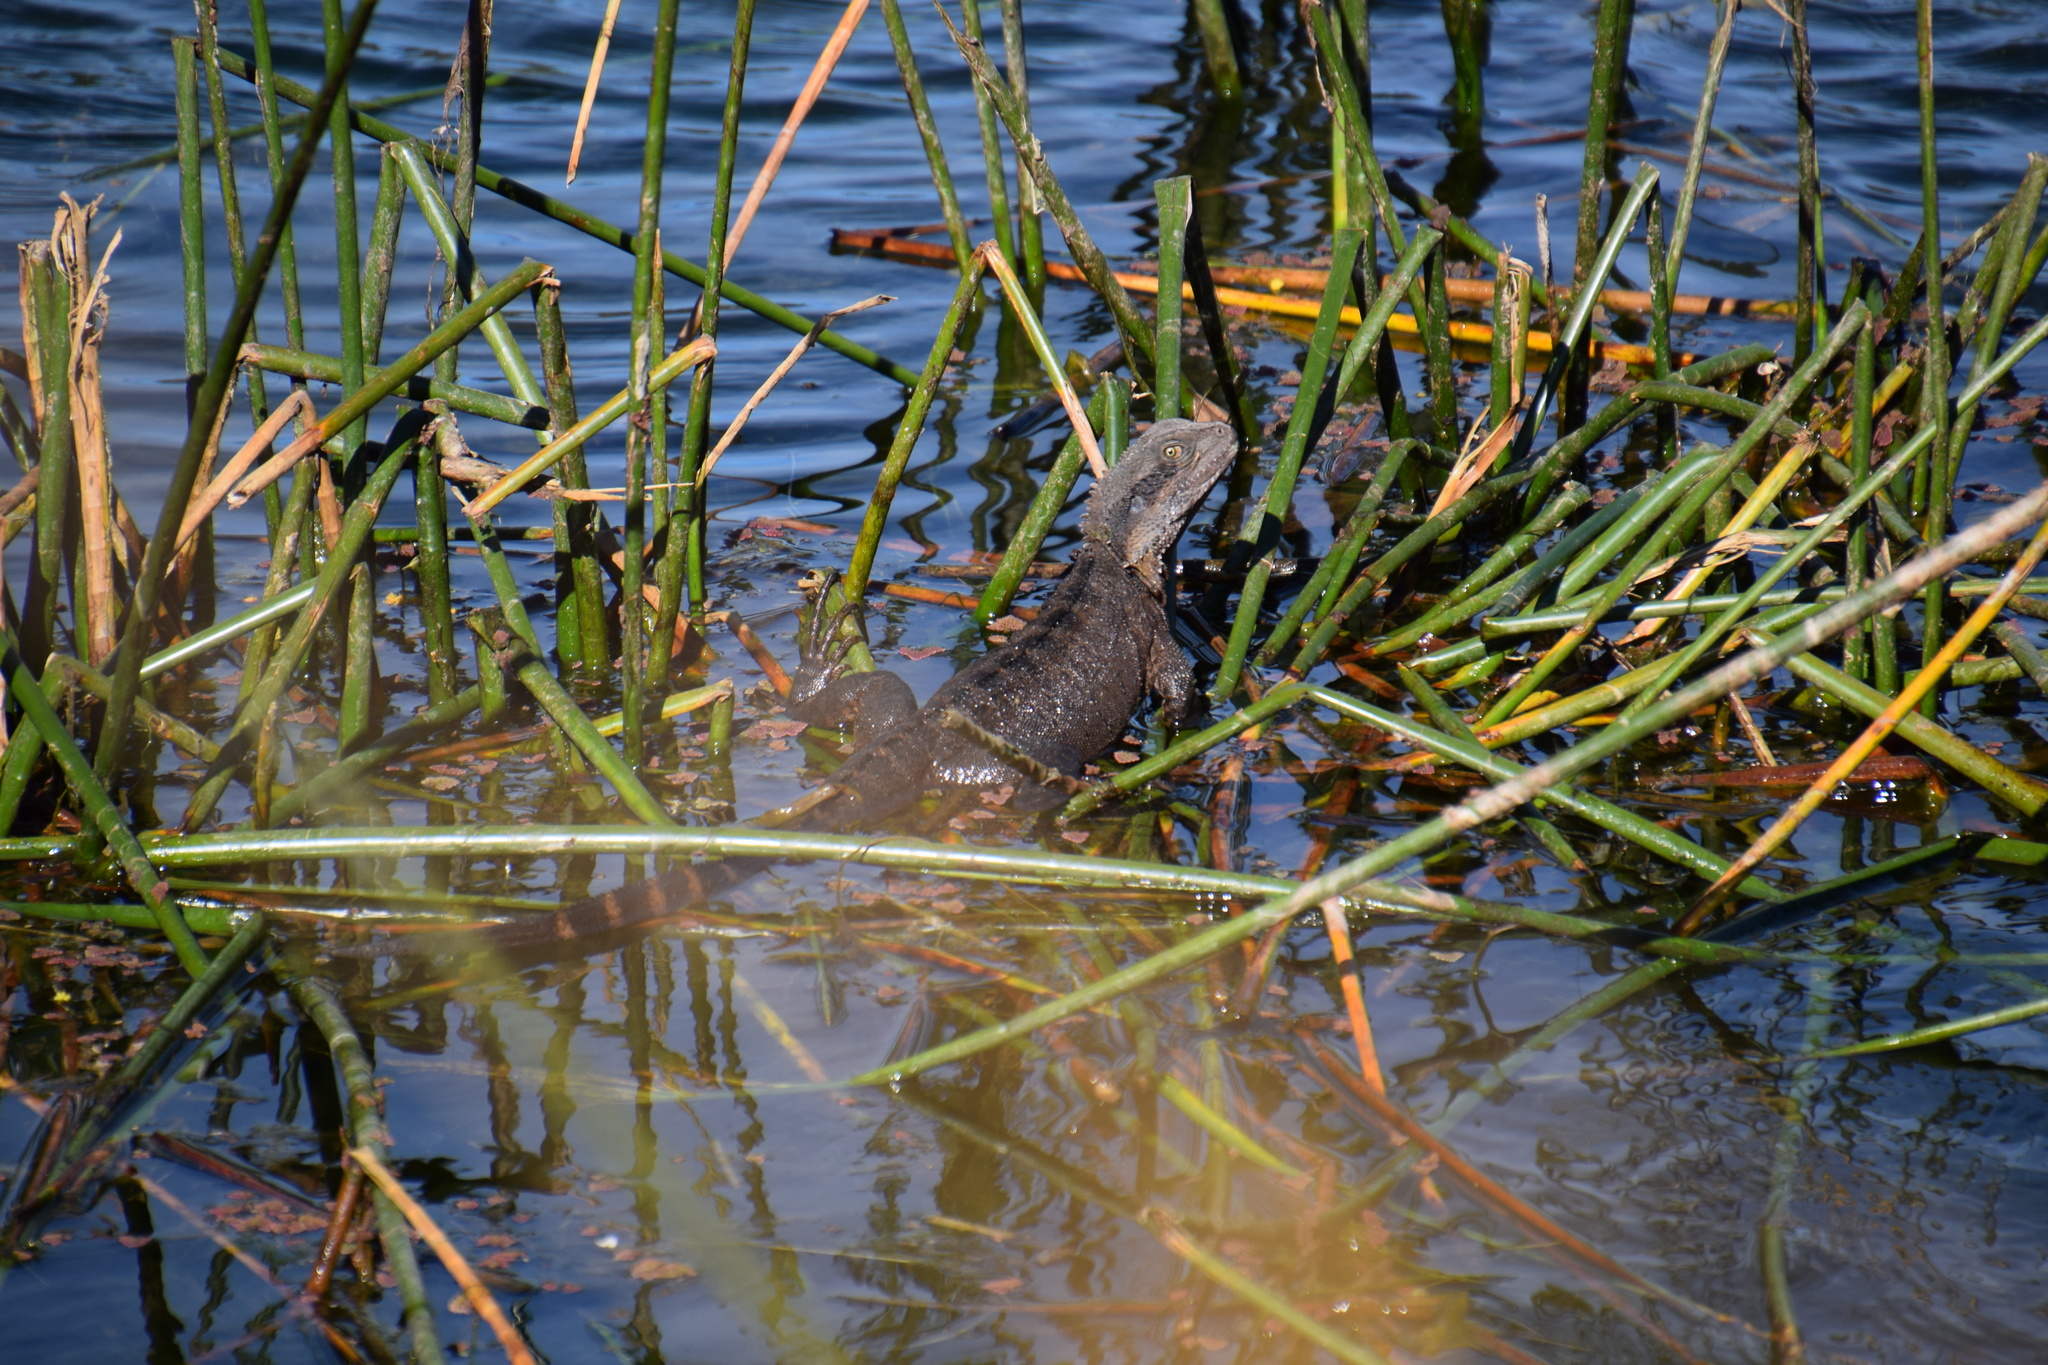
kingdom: Animalia
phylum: Chordata
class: Squamata
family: Agamidae
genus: Intellagama
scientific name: Intellagama lesueurii
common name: Eastern water dragon
